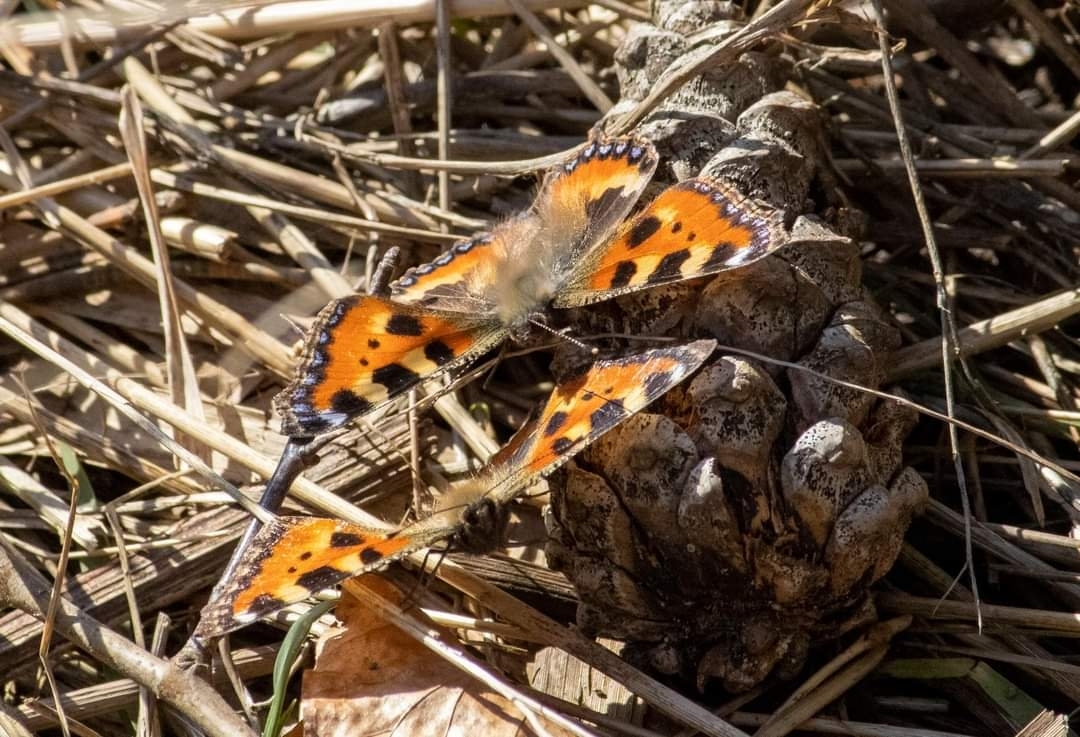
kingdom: Animalia
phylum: Arthropoda
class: Insecta
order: Lepidoptera
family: Nymphalidae
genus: Aglais
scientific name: Aglais urticae
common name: Small tortoiseshell
